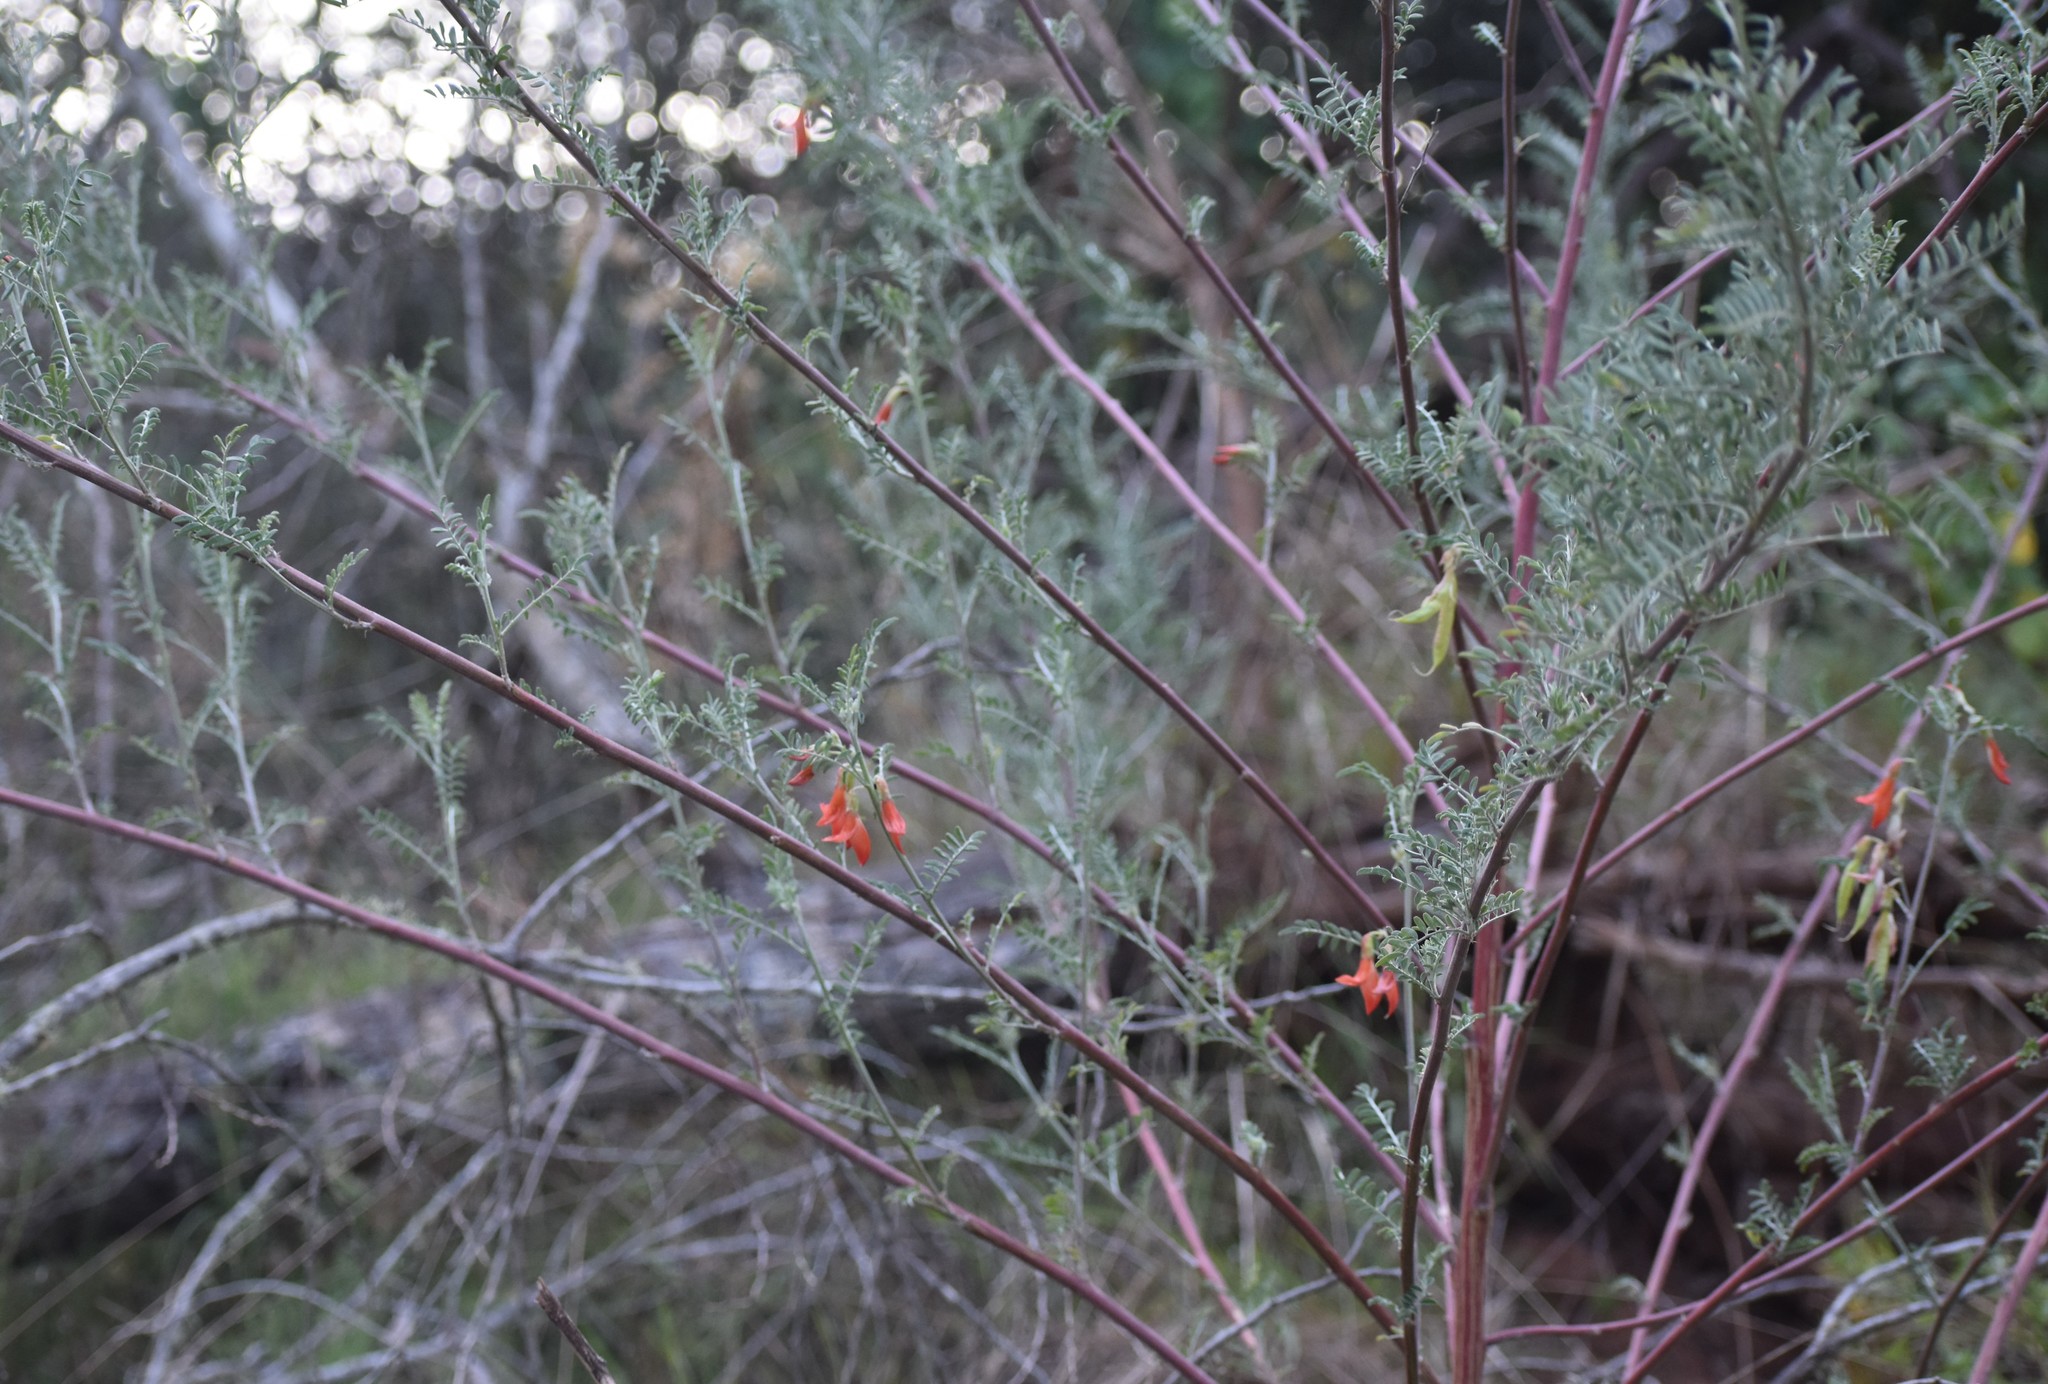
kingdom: Plantae
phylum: Tracheophyta
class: Magnoliopsida
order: Fabales
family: Fabaceae
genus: Lessertia
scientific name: Lessertia frutescens
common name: Balloon-pea
